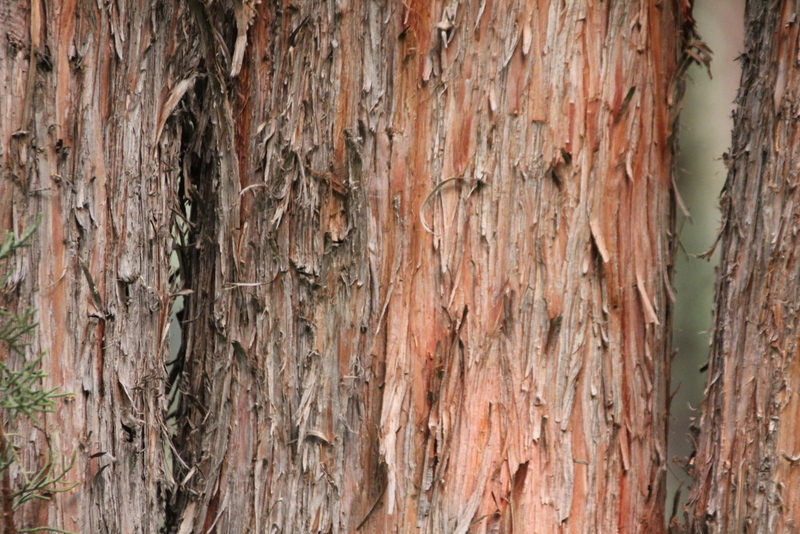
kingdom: Plantae
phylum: Tracheophyta
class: Pinopsida
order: Pinales
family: Cupressaceae
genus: Juniperus
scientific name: Juniperus occidentalis
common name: Western juniper
